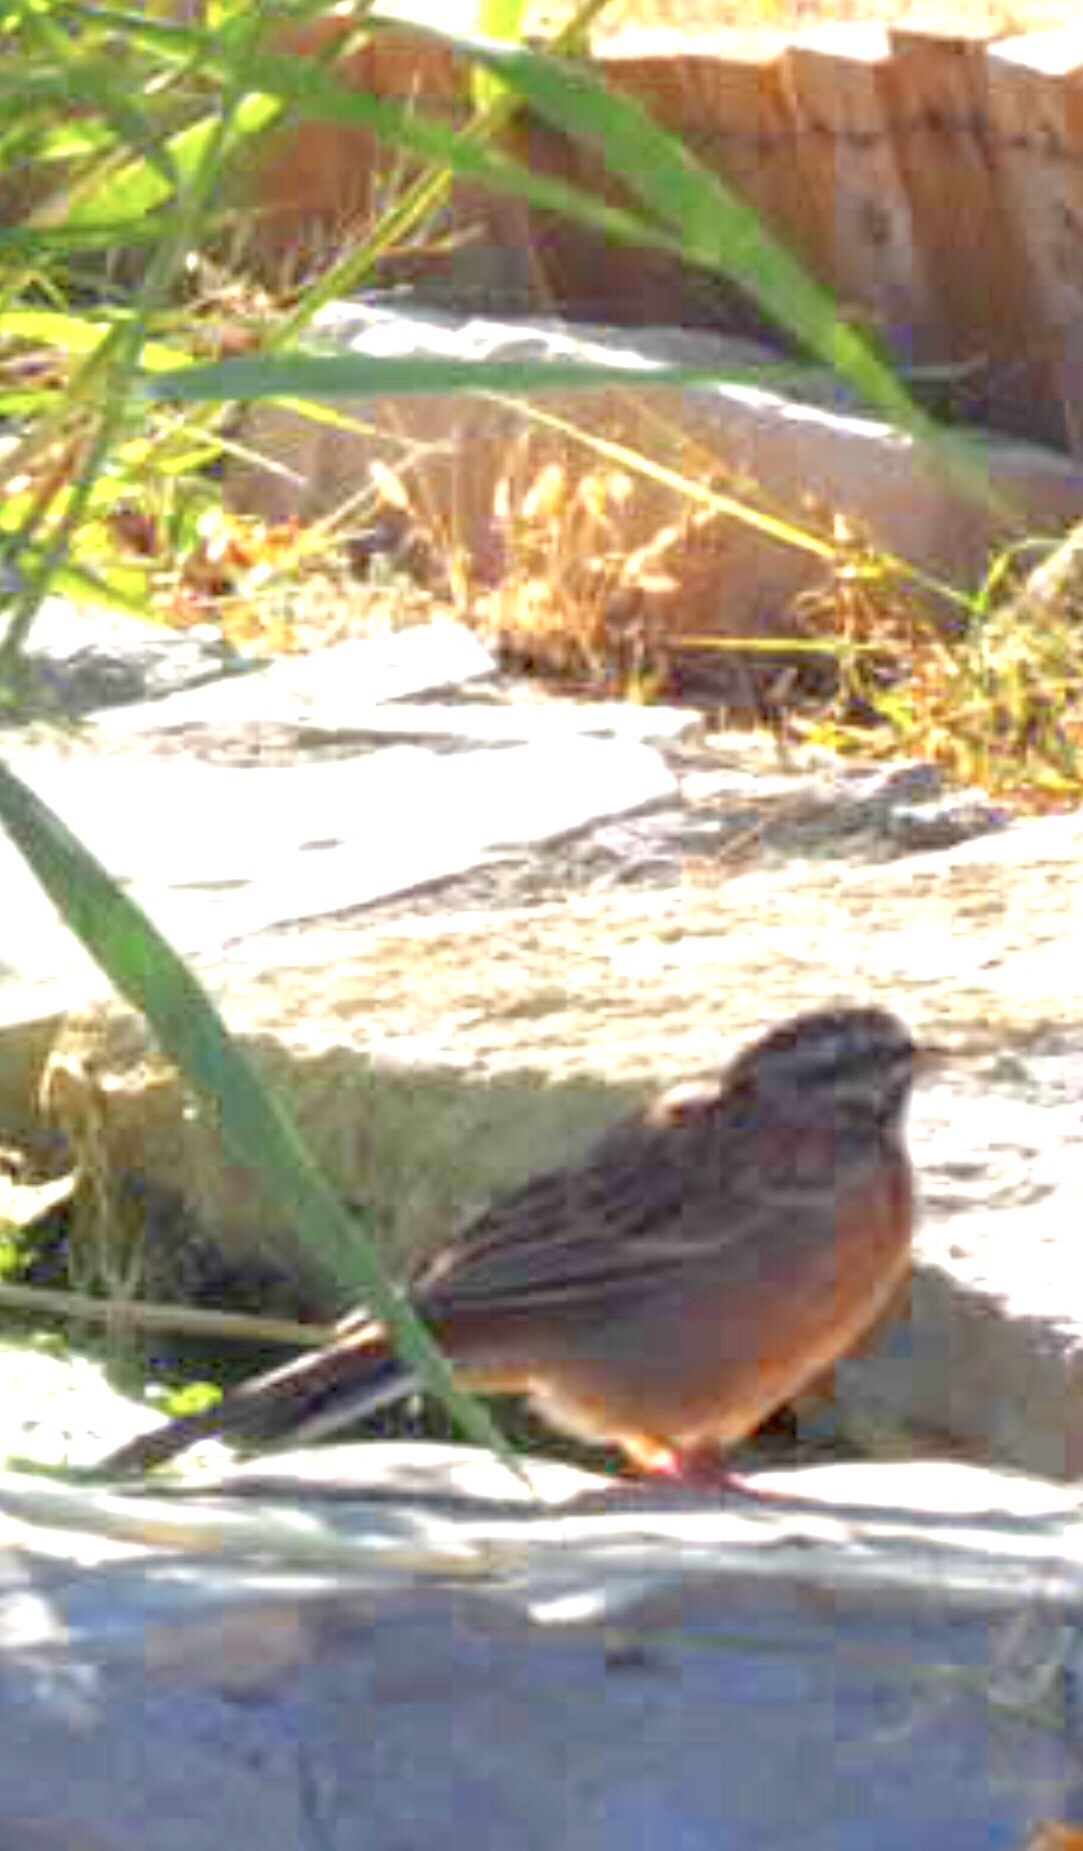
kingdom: Animalia
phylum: Chordata
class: Aves
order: Passeriformes
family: Emberizidae
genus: Emberiza
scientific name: Emberiza cia
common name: Rock bunting
